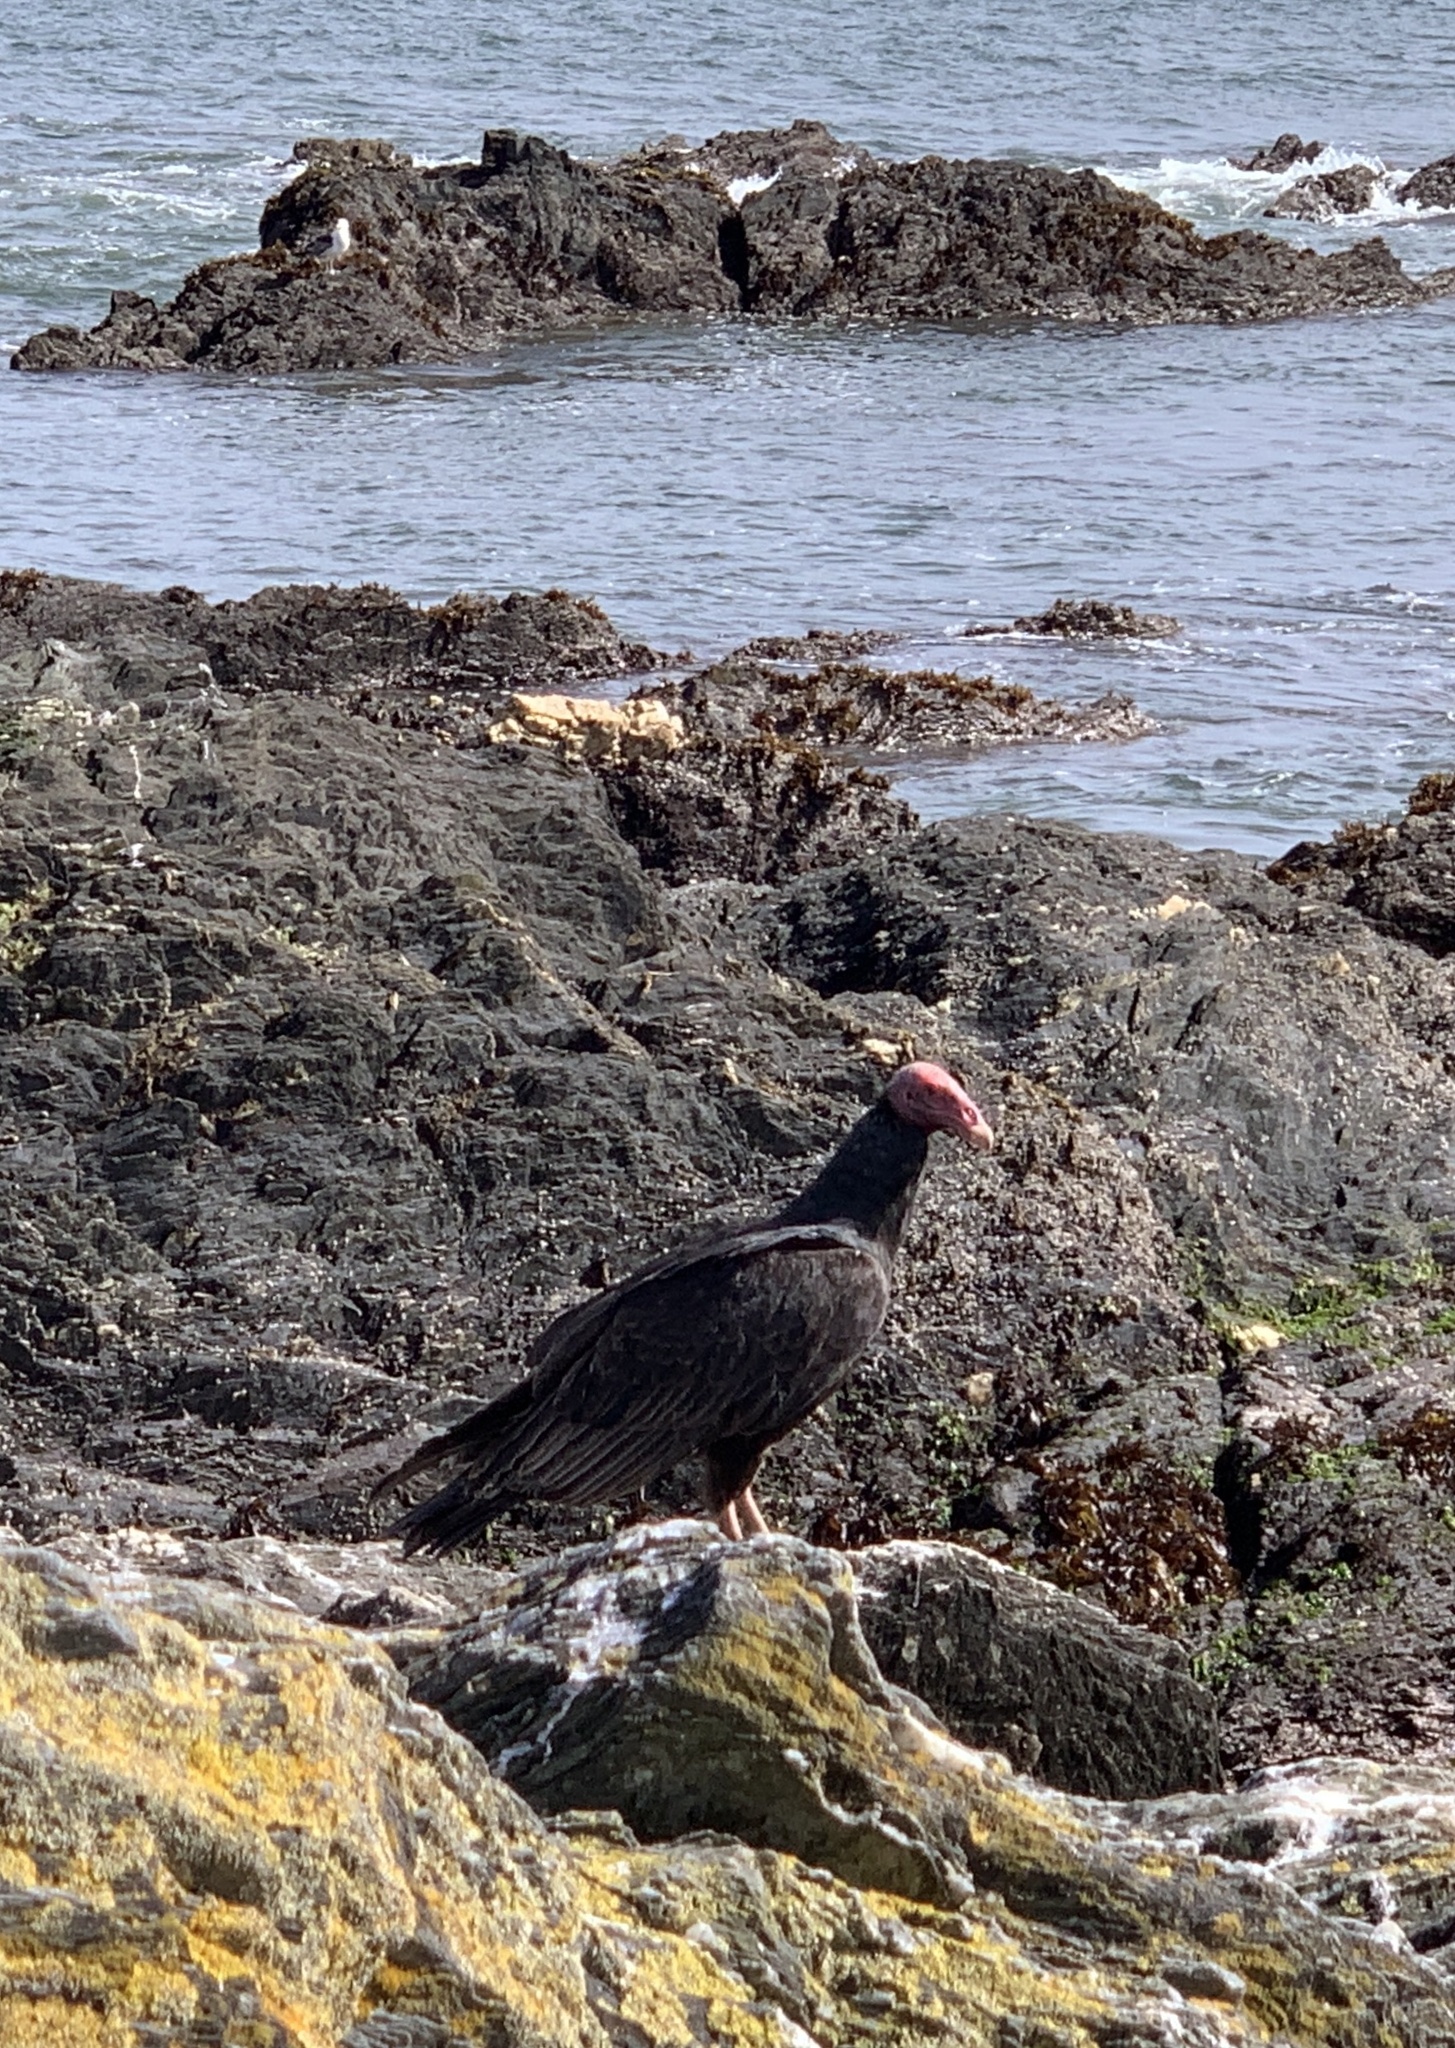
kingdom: Animalia
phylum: Chordata
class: Aves
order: Accipitriformes
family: Cathartidae
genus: Cathartes
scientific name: Cathartes aura
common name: Turkey vulture
